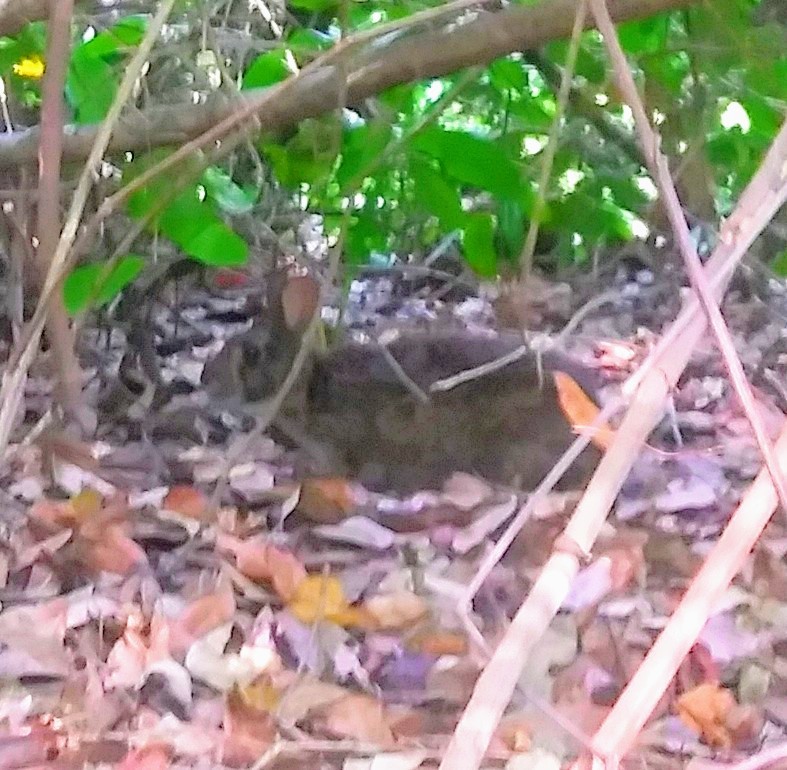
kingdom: Animalia
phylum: Chordata
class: Mammalia
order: Lagomorpha
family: Leporidae
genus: Sylvilagus
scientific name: Sylvilagus palustris
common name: Marsh rabbit
